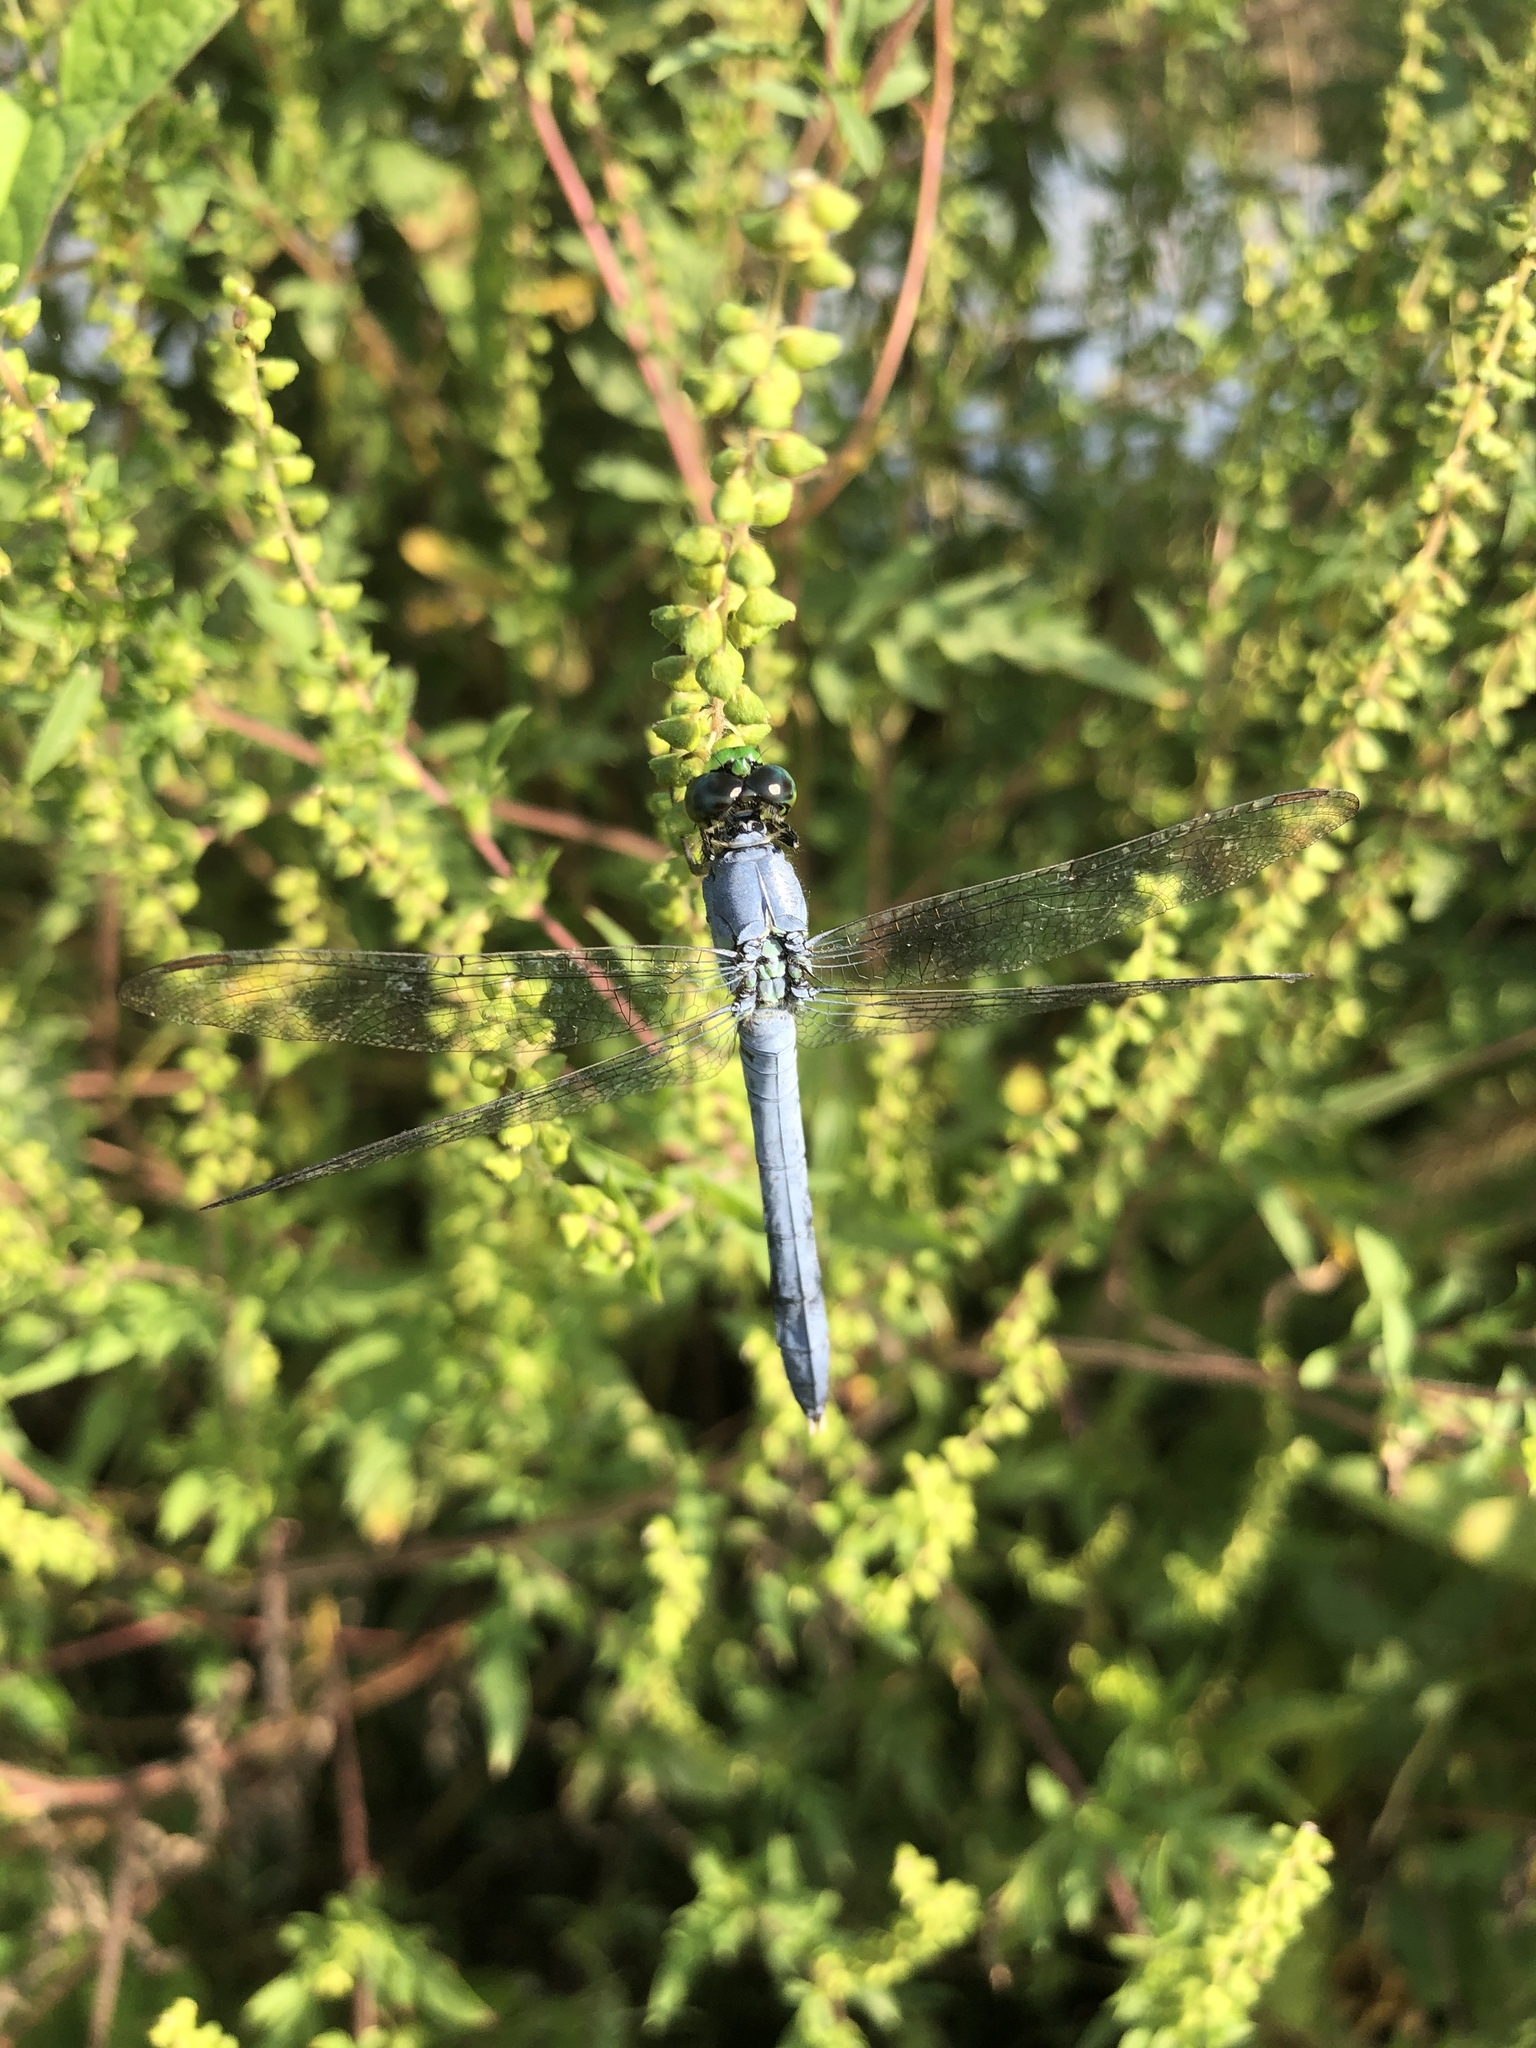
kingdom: Animalia
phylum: Arthropoda
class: Insecta
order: Odonata
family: Libellulidae
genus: Erythemis
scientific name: Erythemis simplicicollis
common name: Eastern pondhawk
